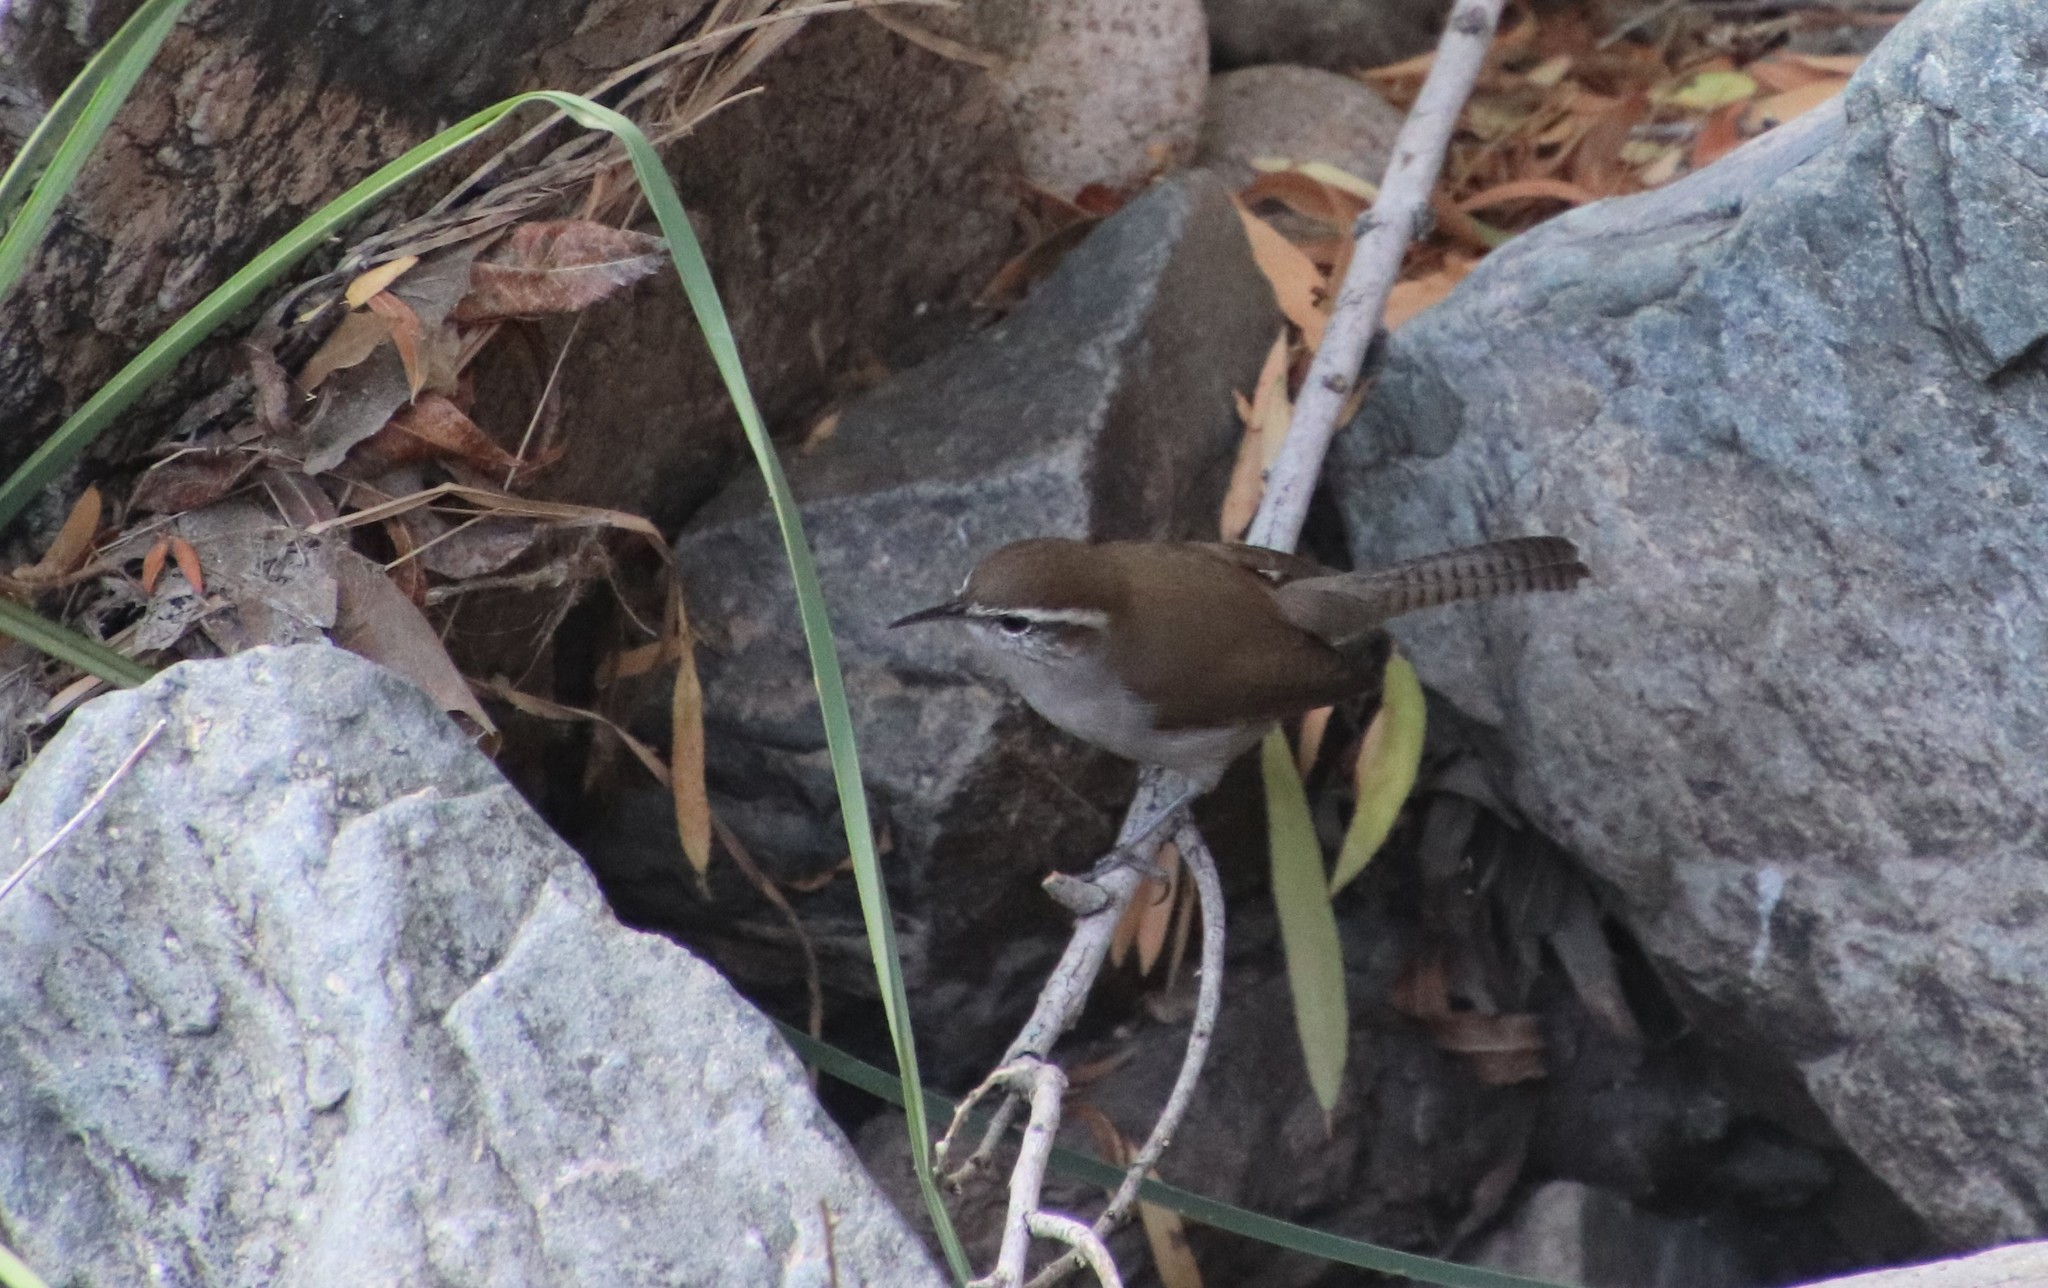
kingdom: Animalia
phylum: Chordata
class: Aves
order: Passeriformes
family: Troglodytidae
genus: Thryomanes
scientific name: Thryomanes bewickii
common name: Bewick's wren
